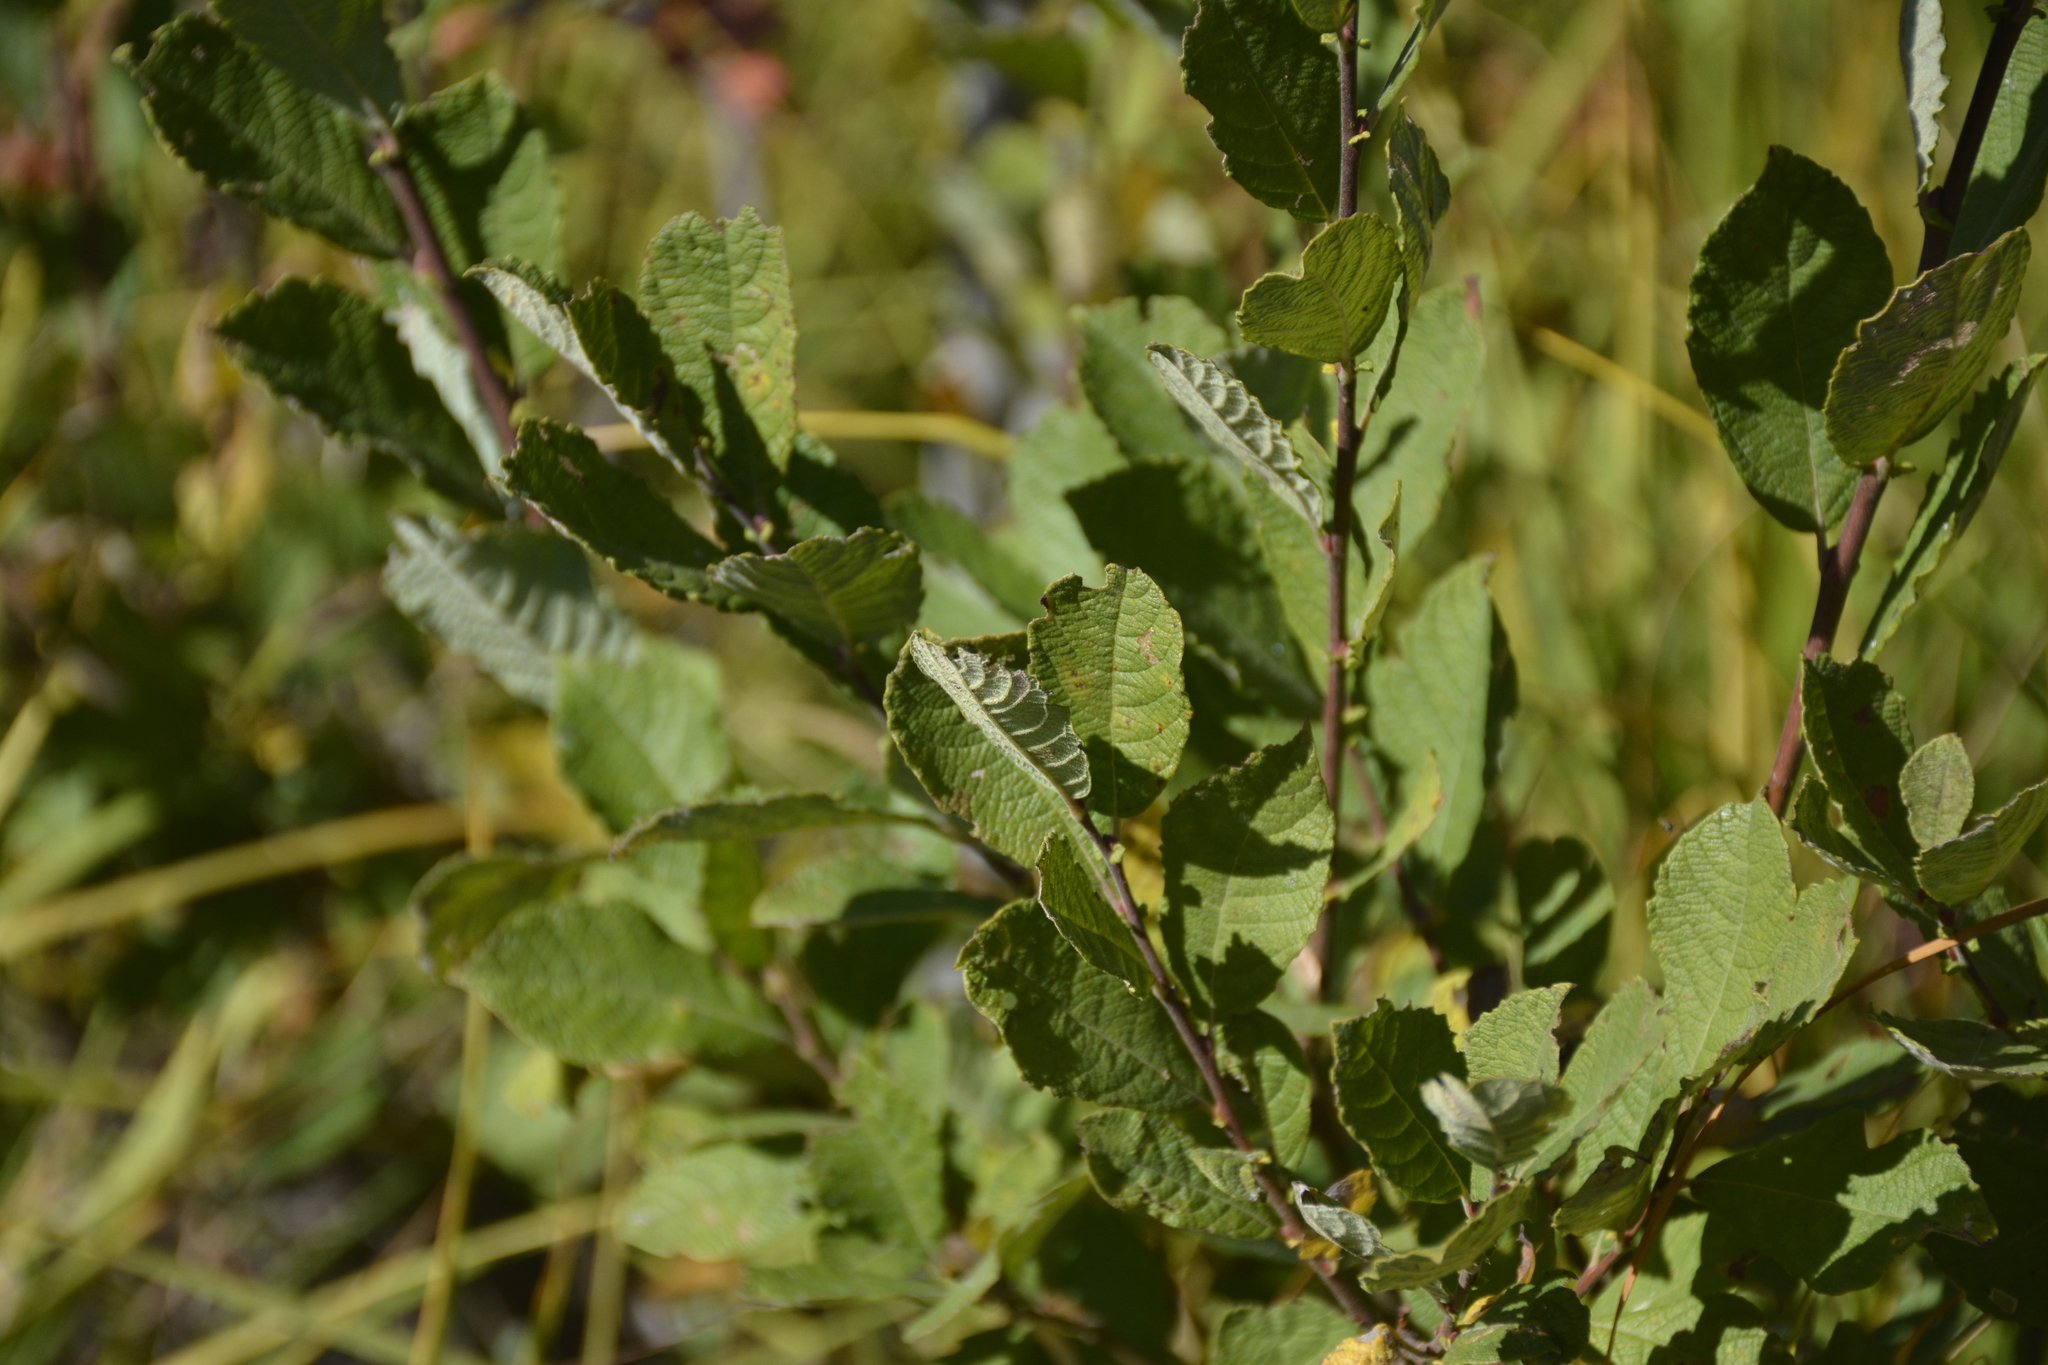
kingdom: Plantae
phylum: Tracheophyta
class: Magnoliopsida
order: Malpighiales
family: Salicaceae
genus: Salix
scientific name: Salix aurita
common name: Eared willow
